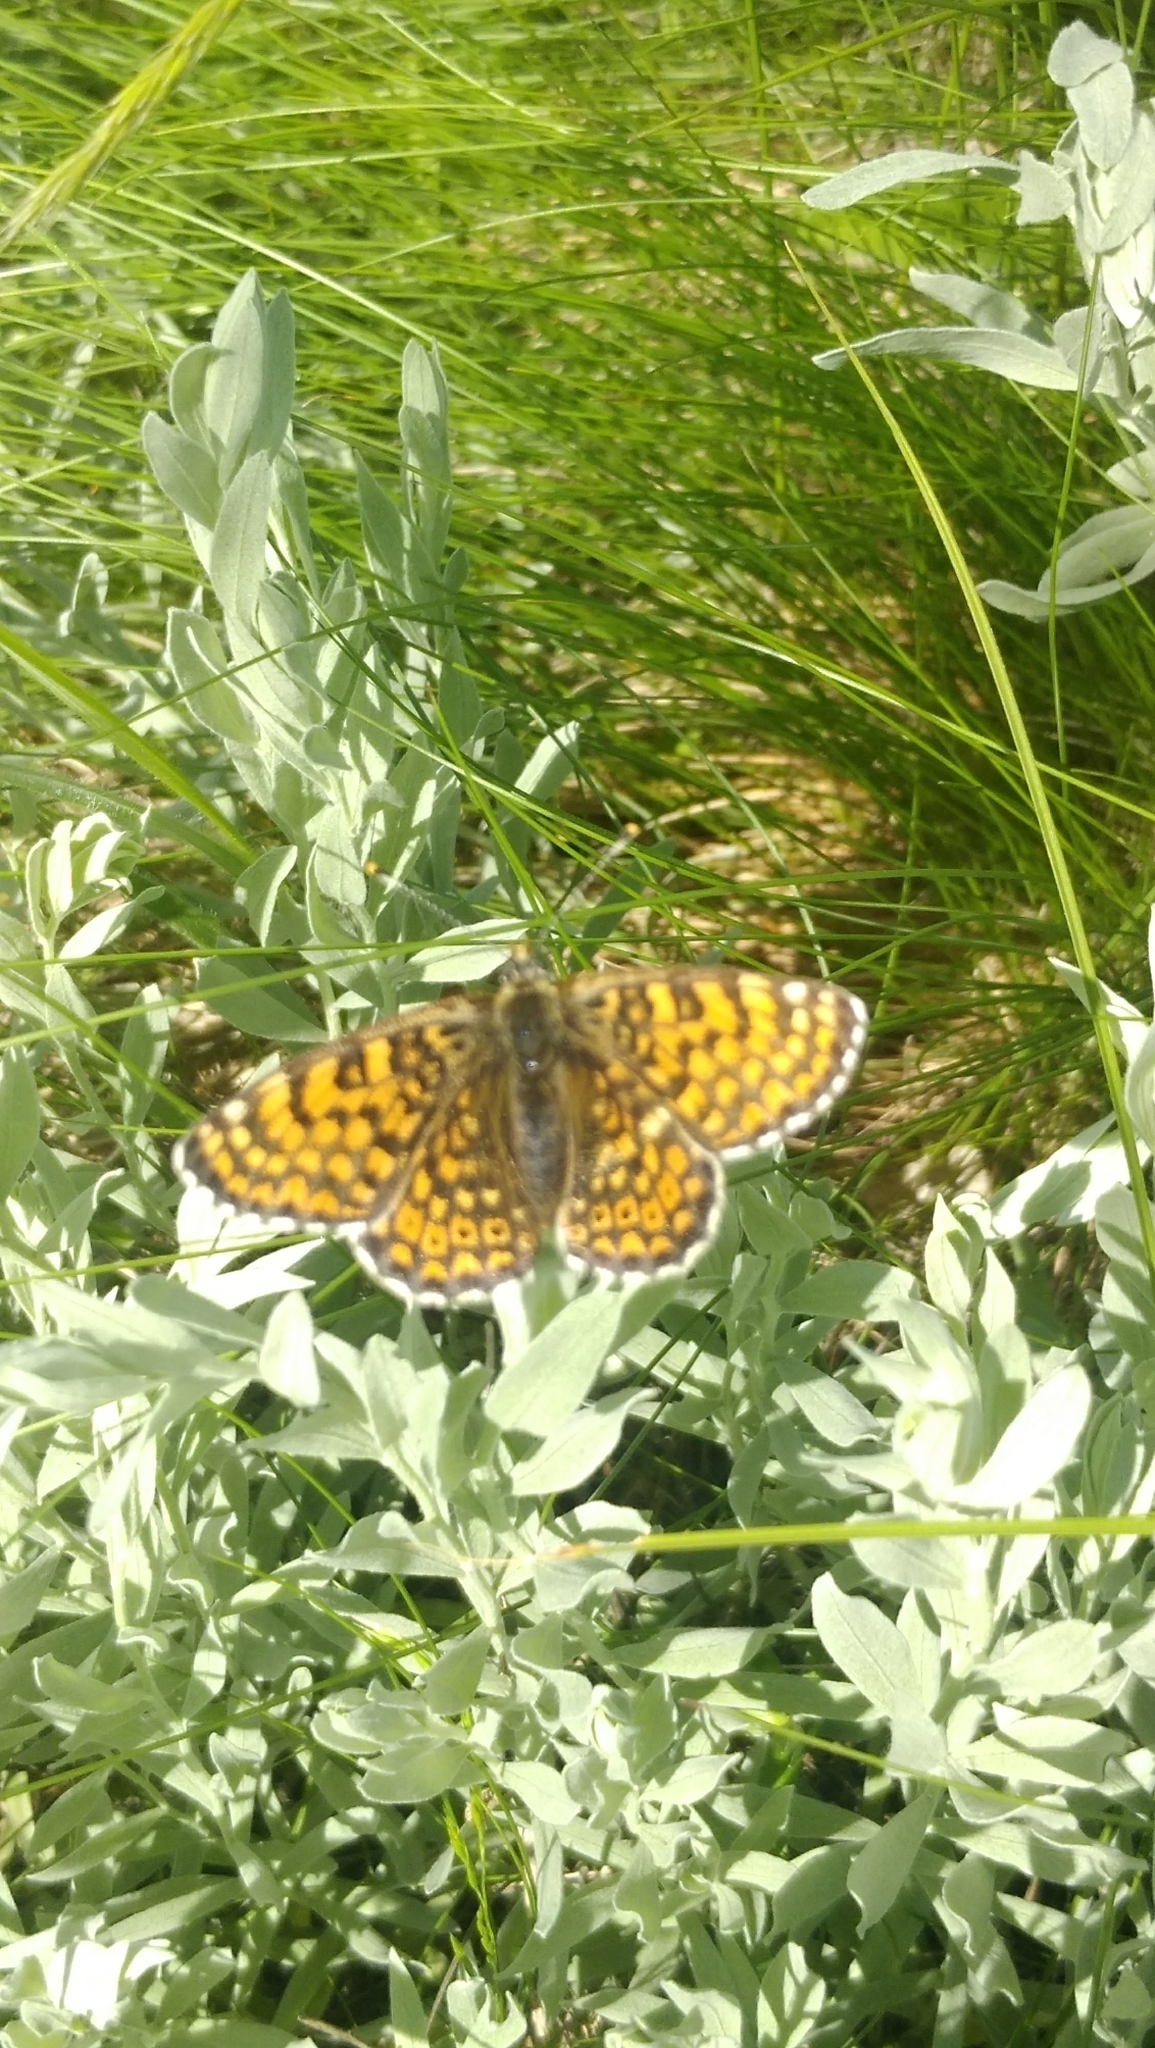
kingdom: Animalia
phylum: Arthropoda
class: Insecta
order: Lepidoptera
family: Nymphalidae
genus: Melitaea
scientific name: Melitaea cinxia
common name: Glanville fritillary
